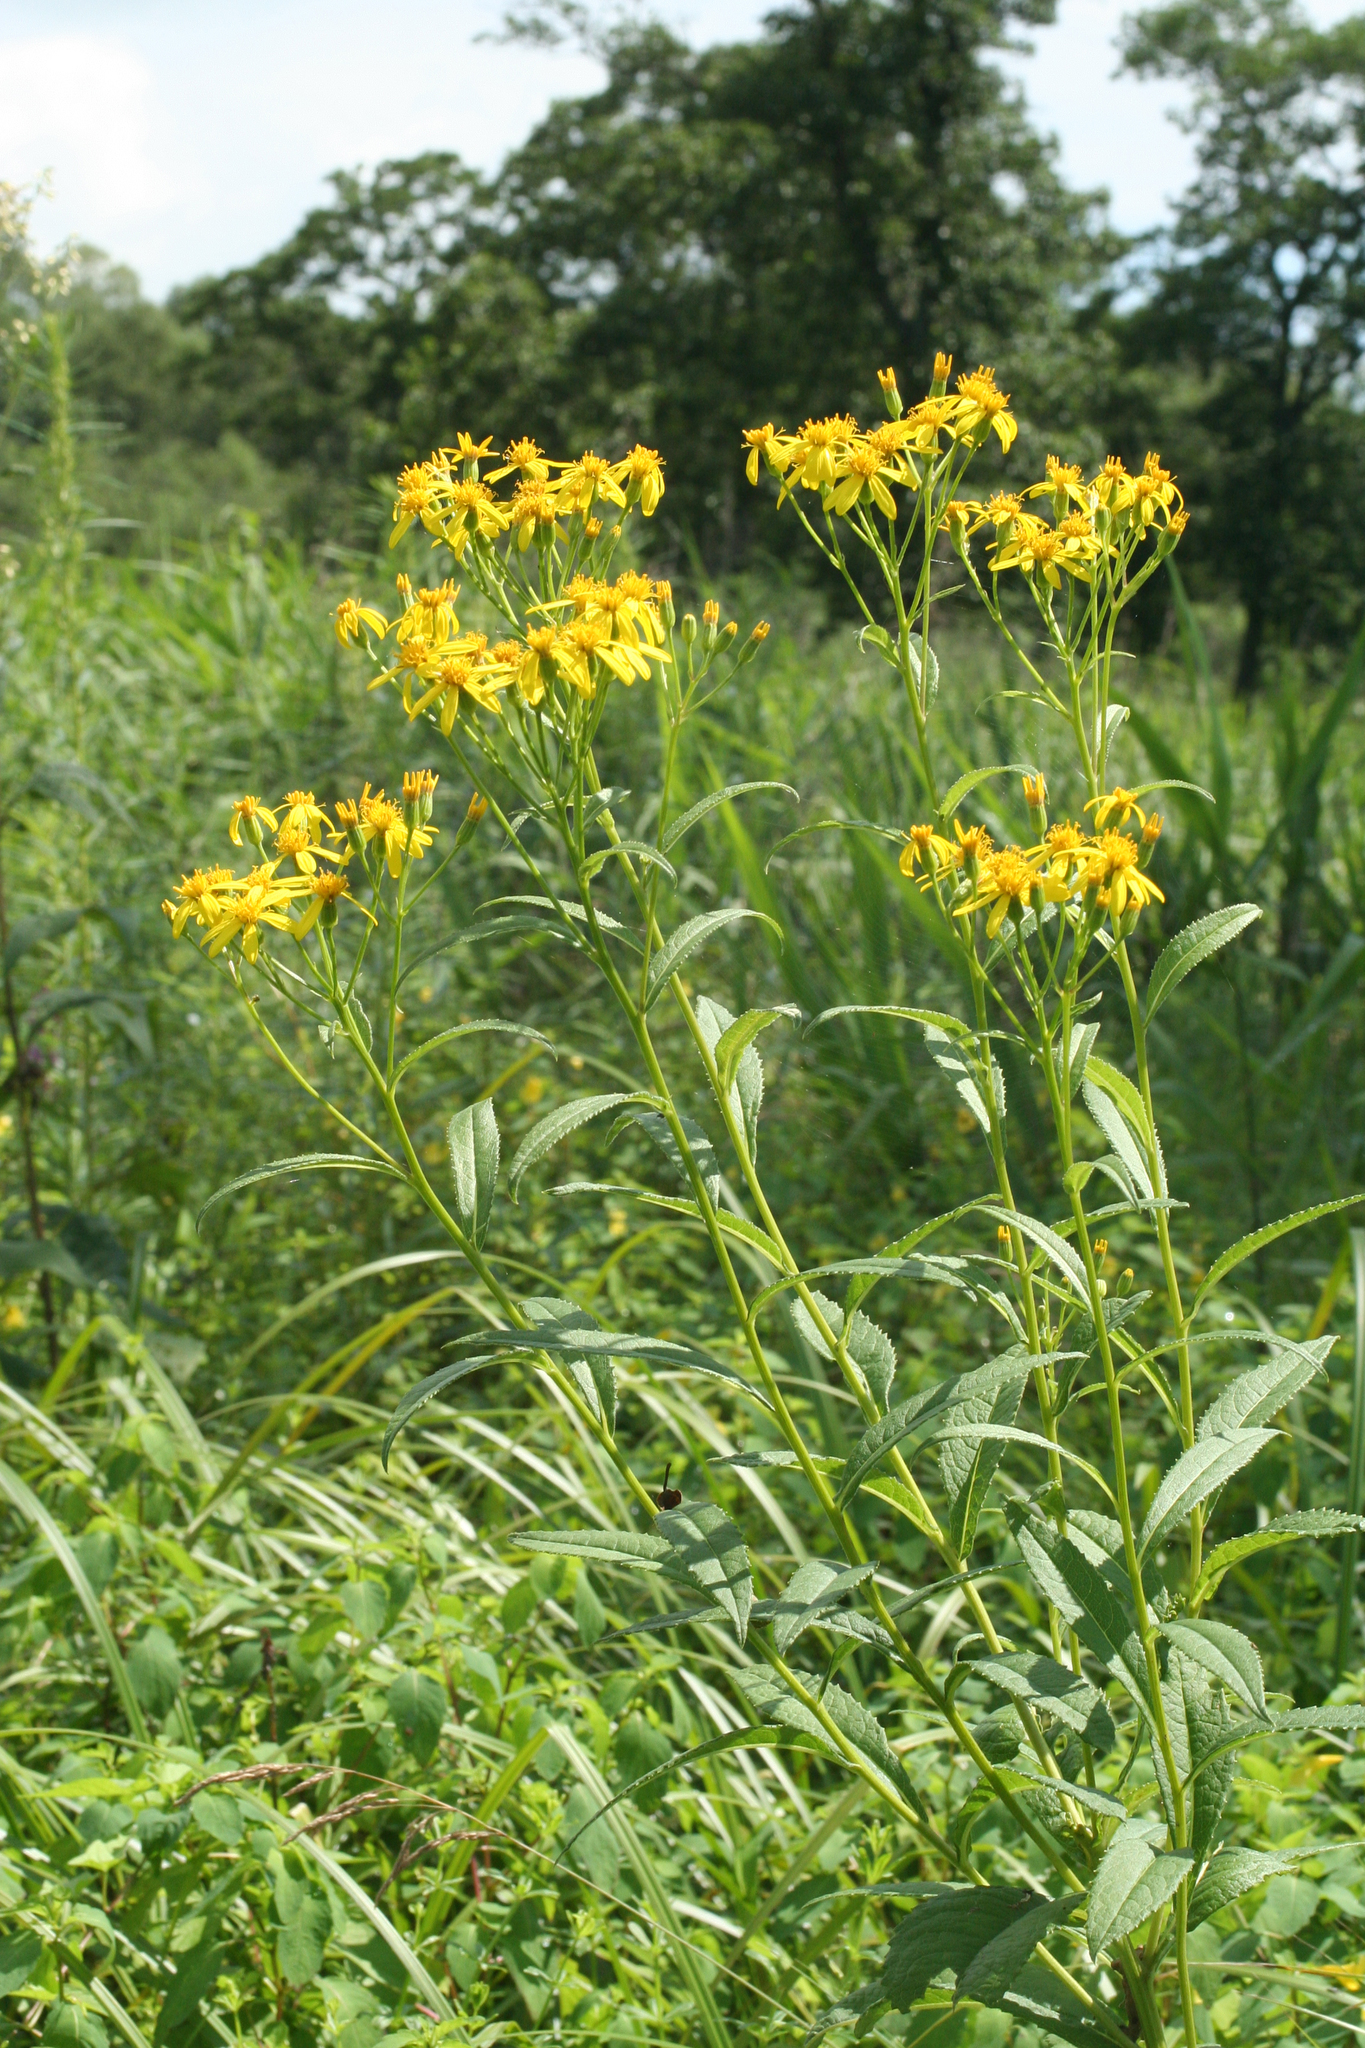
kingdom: Plantae
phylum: Tracheophyta
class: Magnoliopsida
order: Asterales
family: Asteraceae
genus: Jacobaea
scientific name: Jacobaea chassanica
